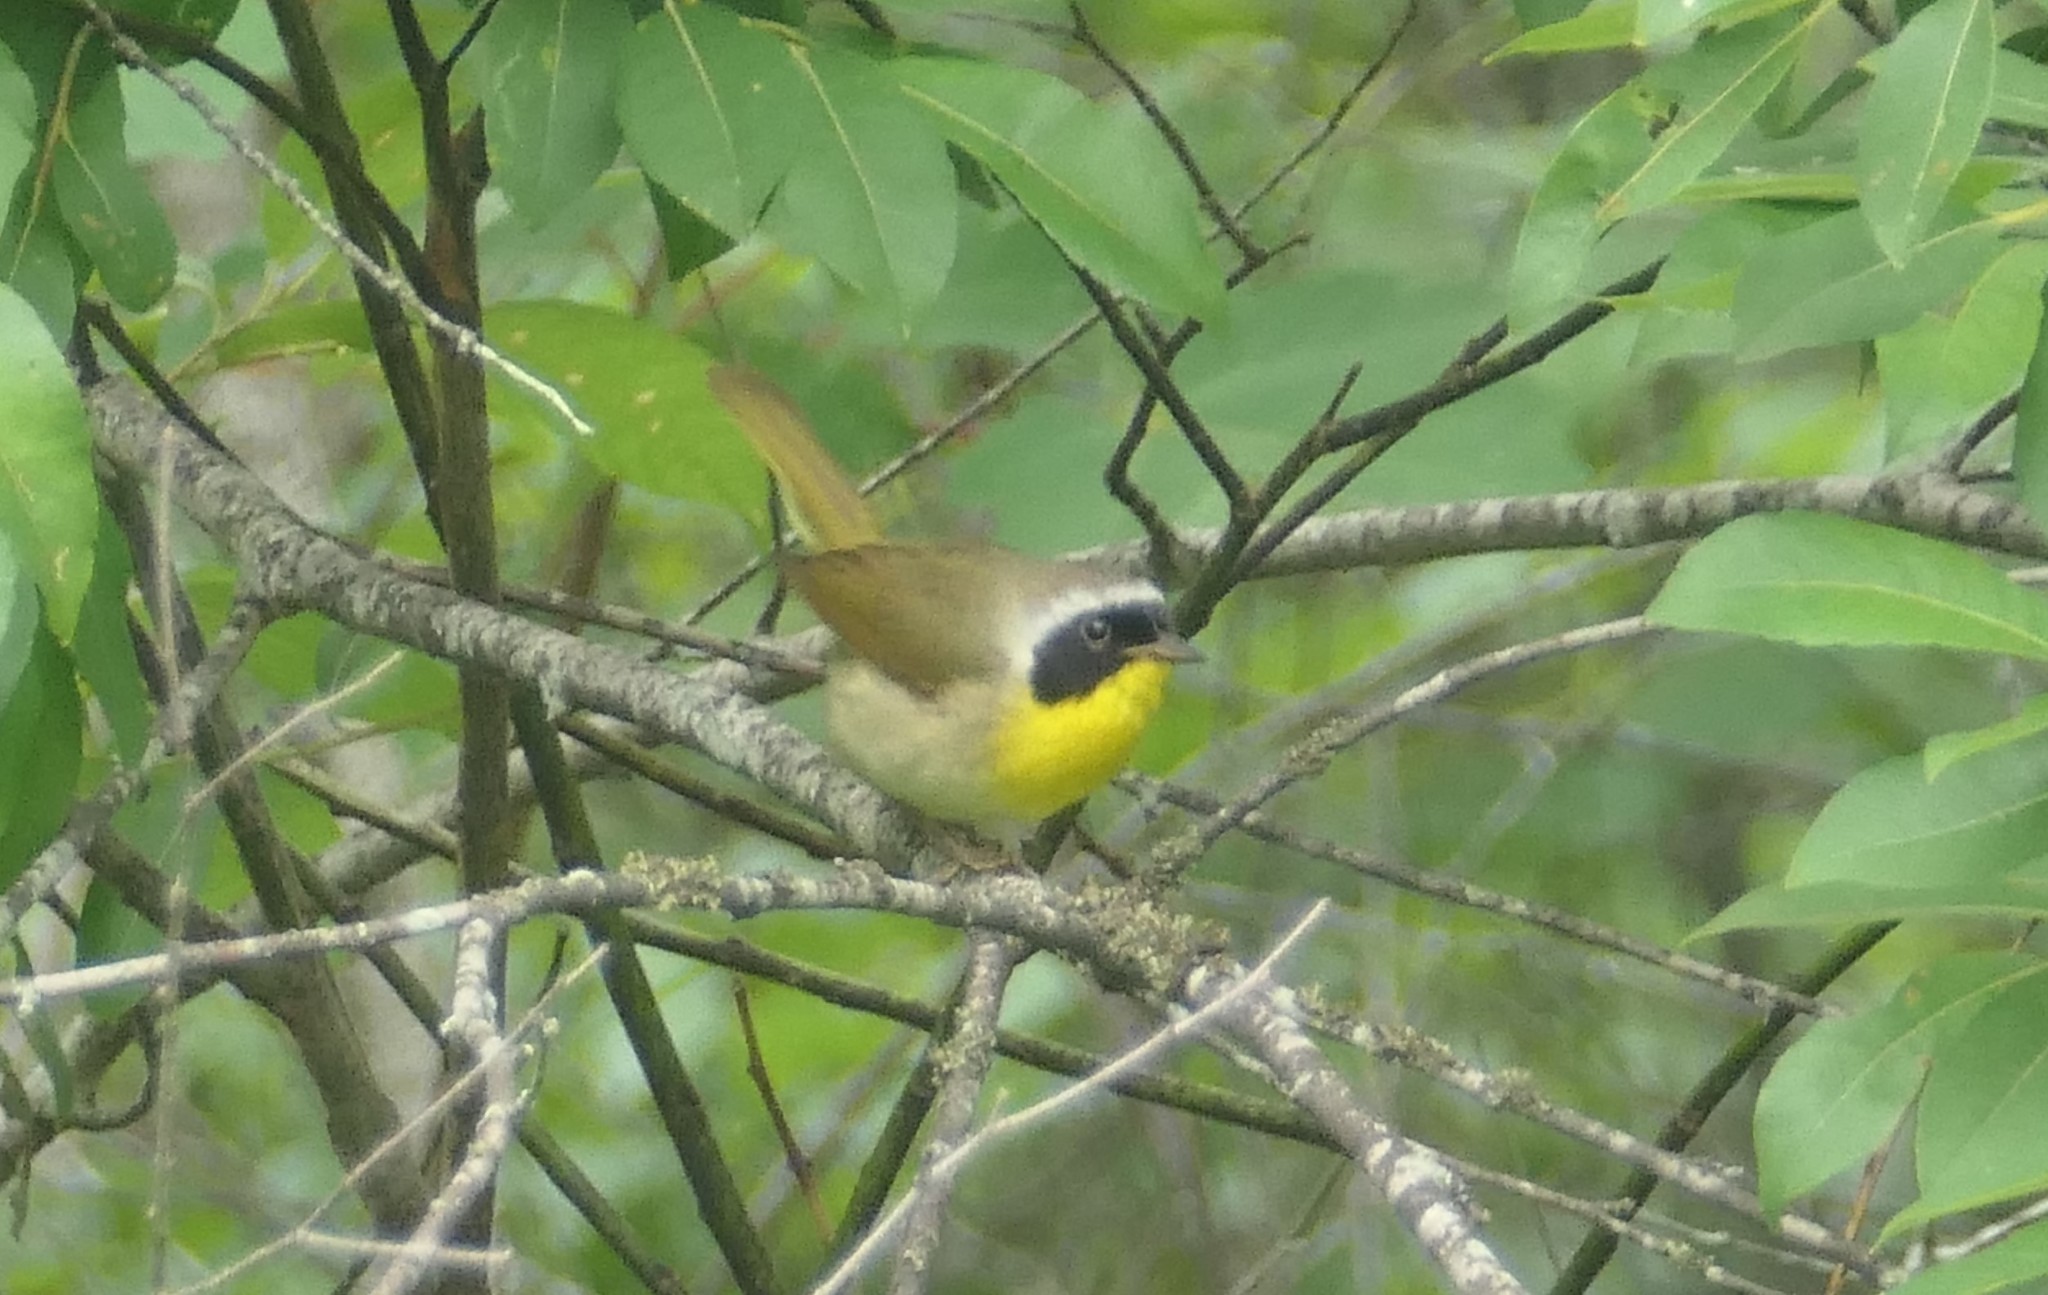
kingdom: Animalia
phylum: Chordata
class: Aves
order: Passeriformes
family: Parulidae
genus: Geothlypis
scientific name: Geothlypis trichas
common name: Common yellowthroat
